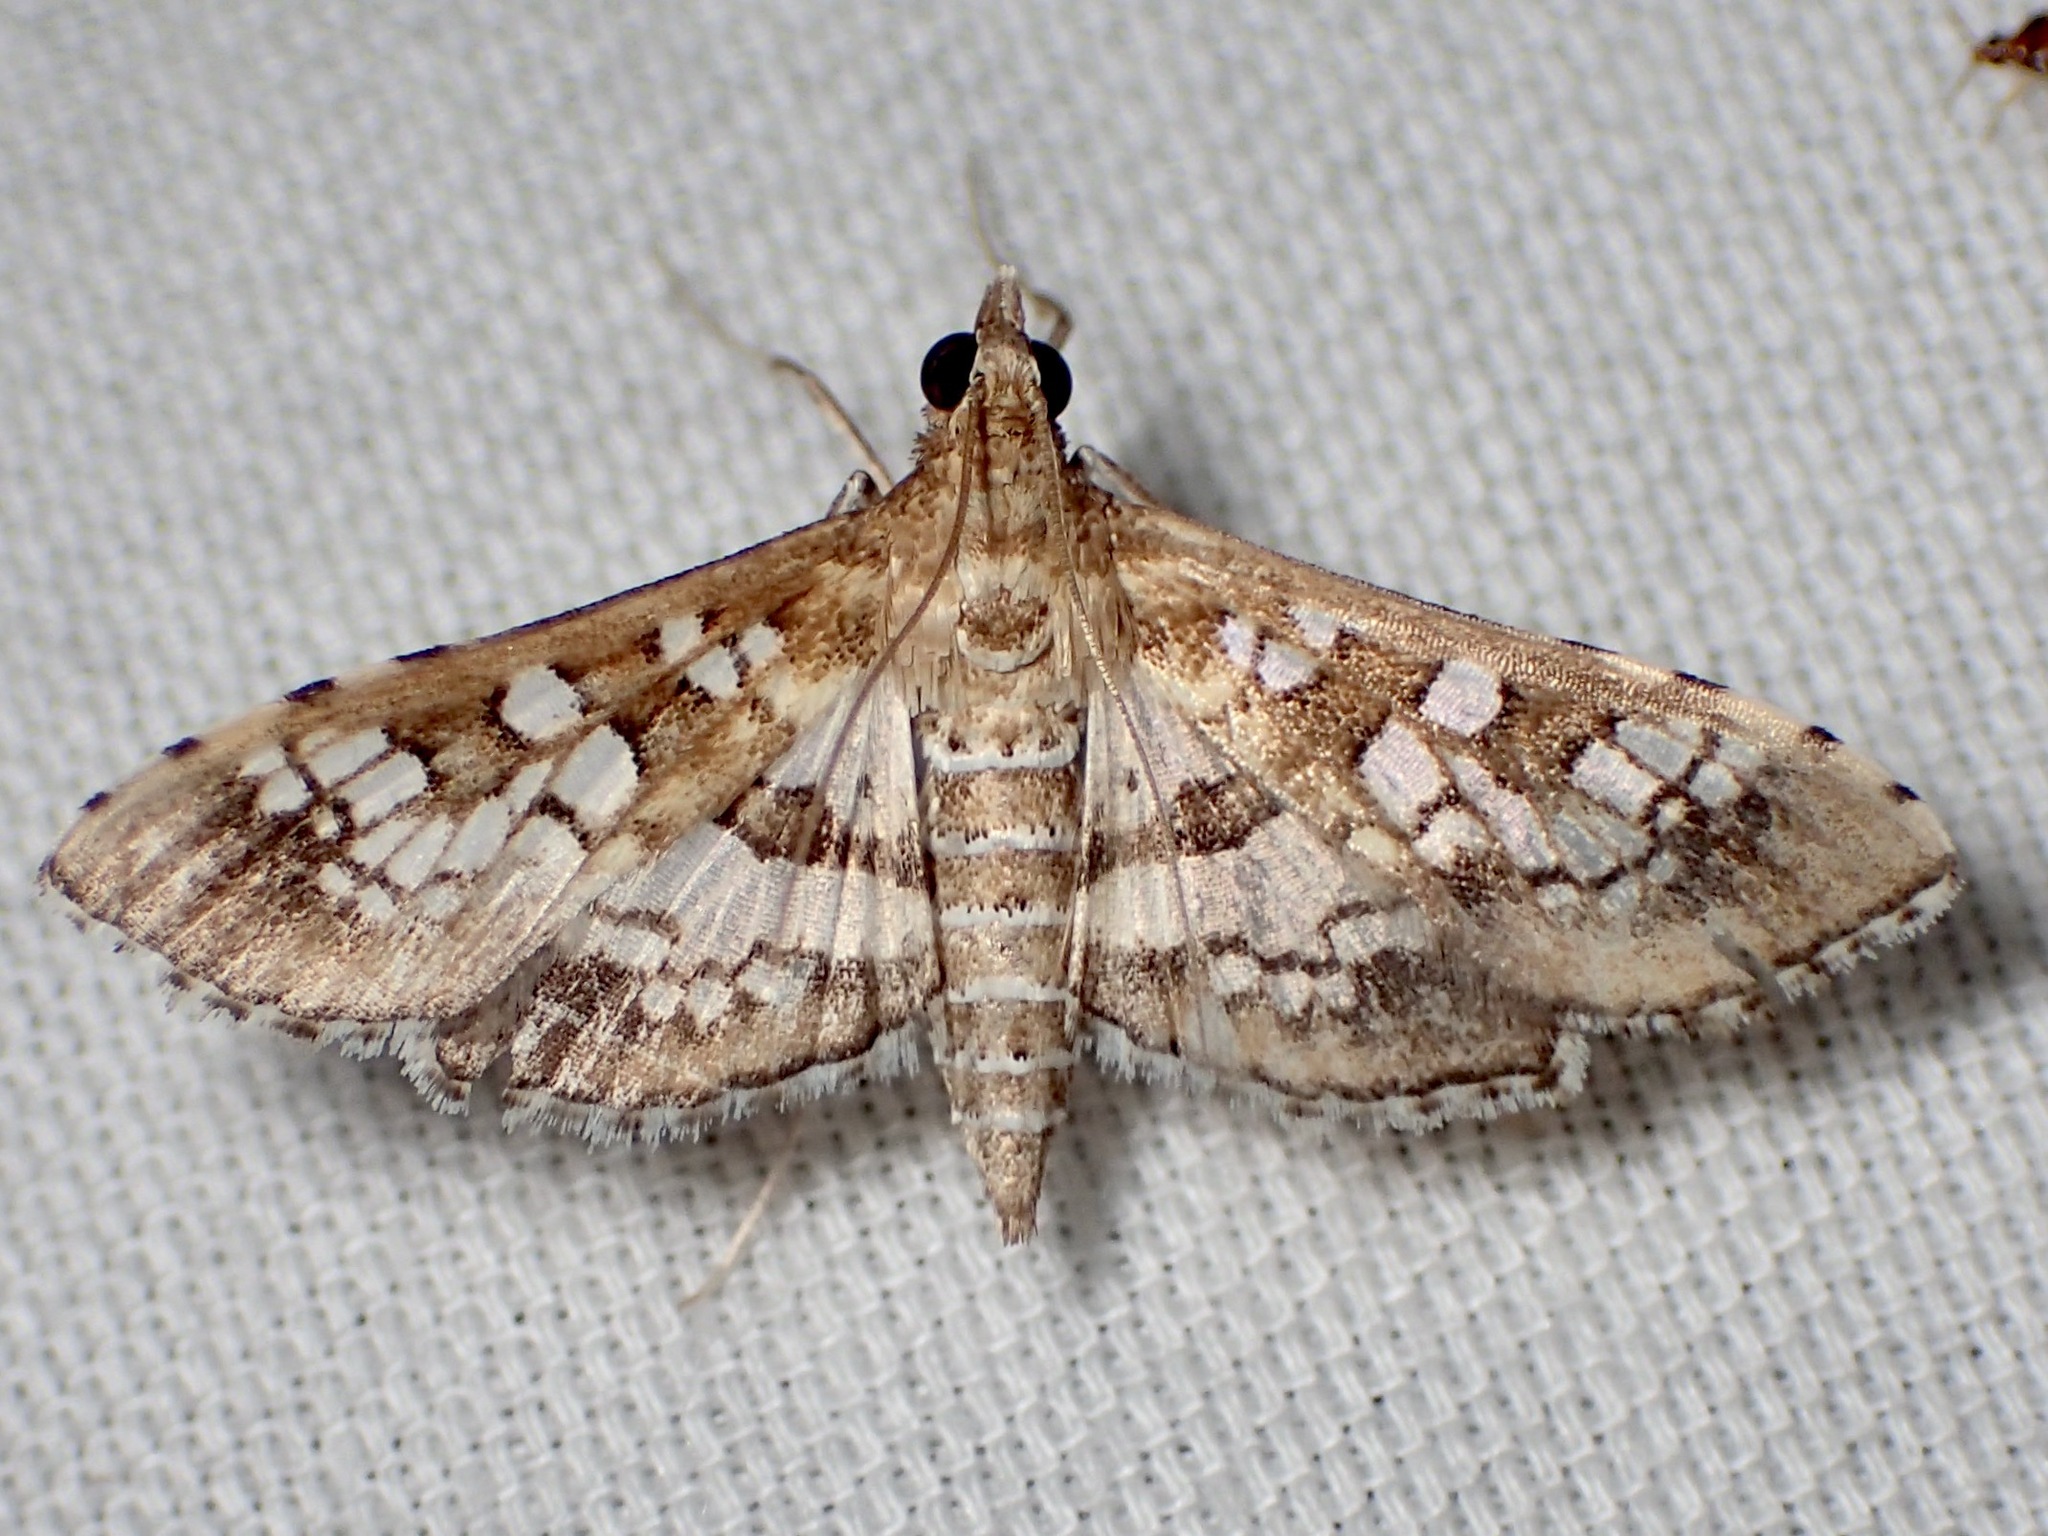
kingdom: Animalia
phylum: Arthropoda
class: Insecta
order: Lepidoptera
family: Crambidae
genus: Sameodes
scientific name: Sameodes cancellalis
